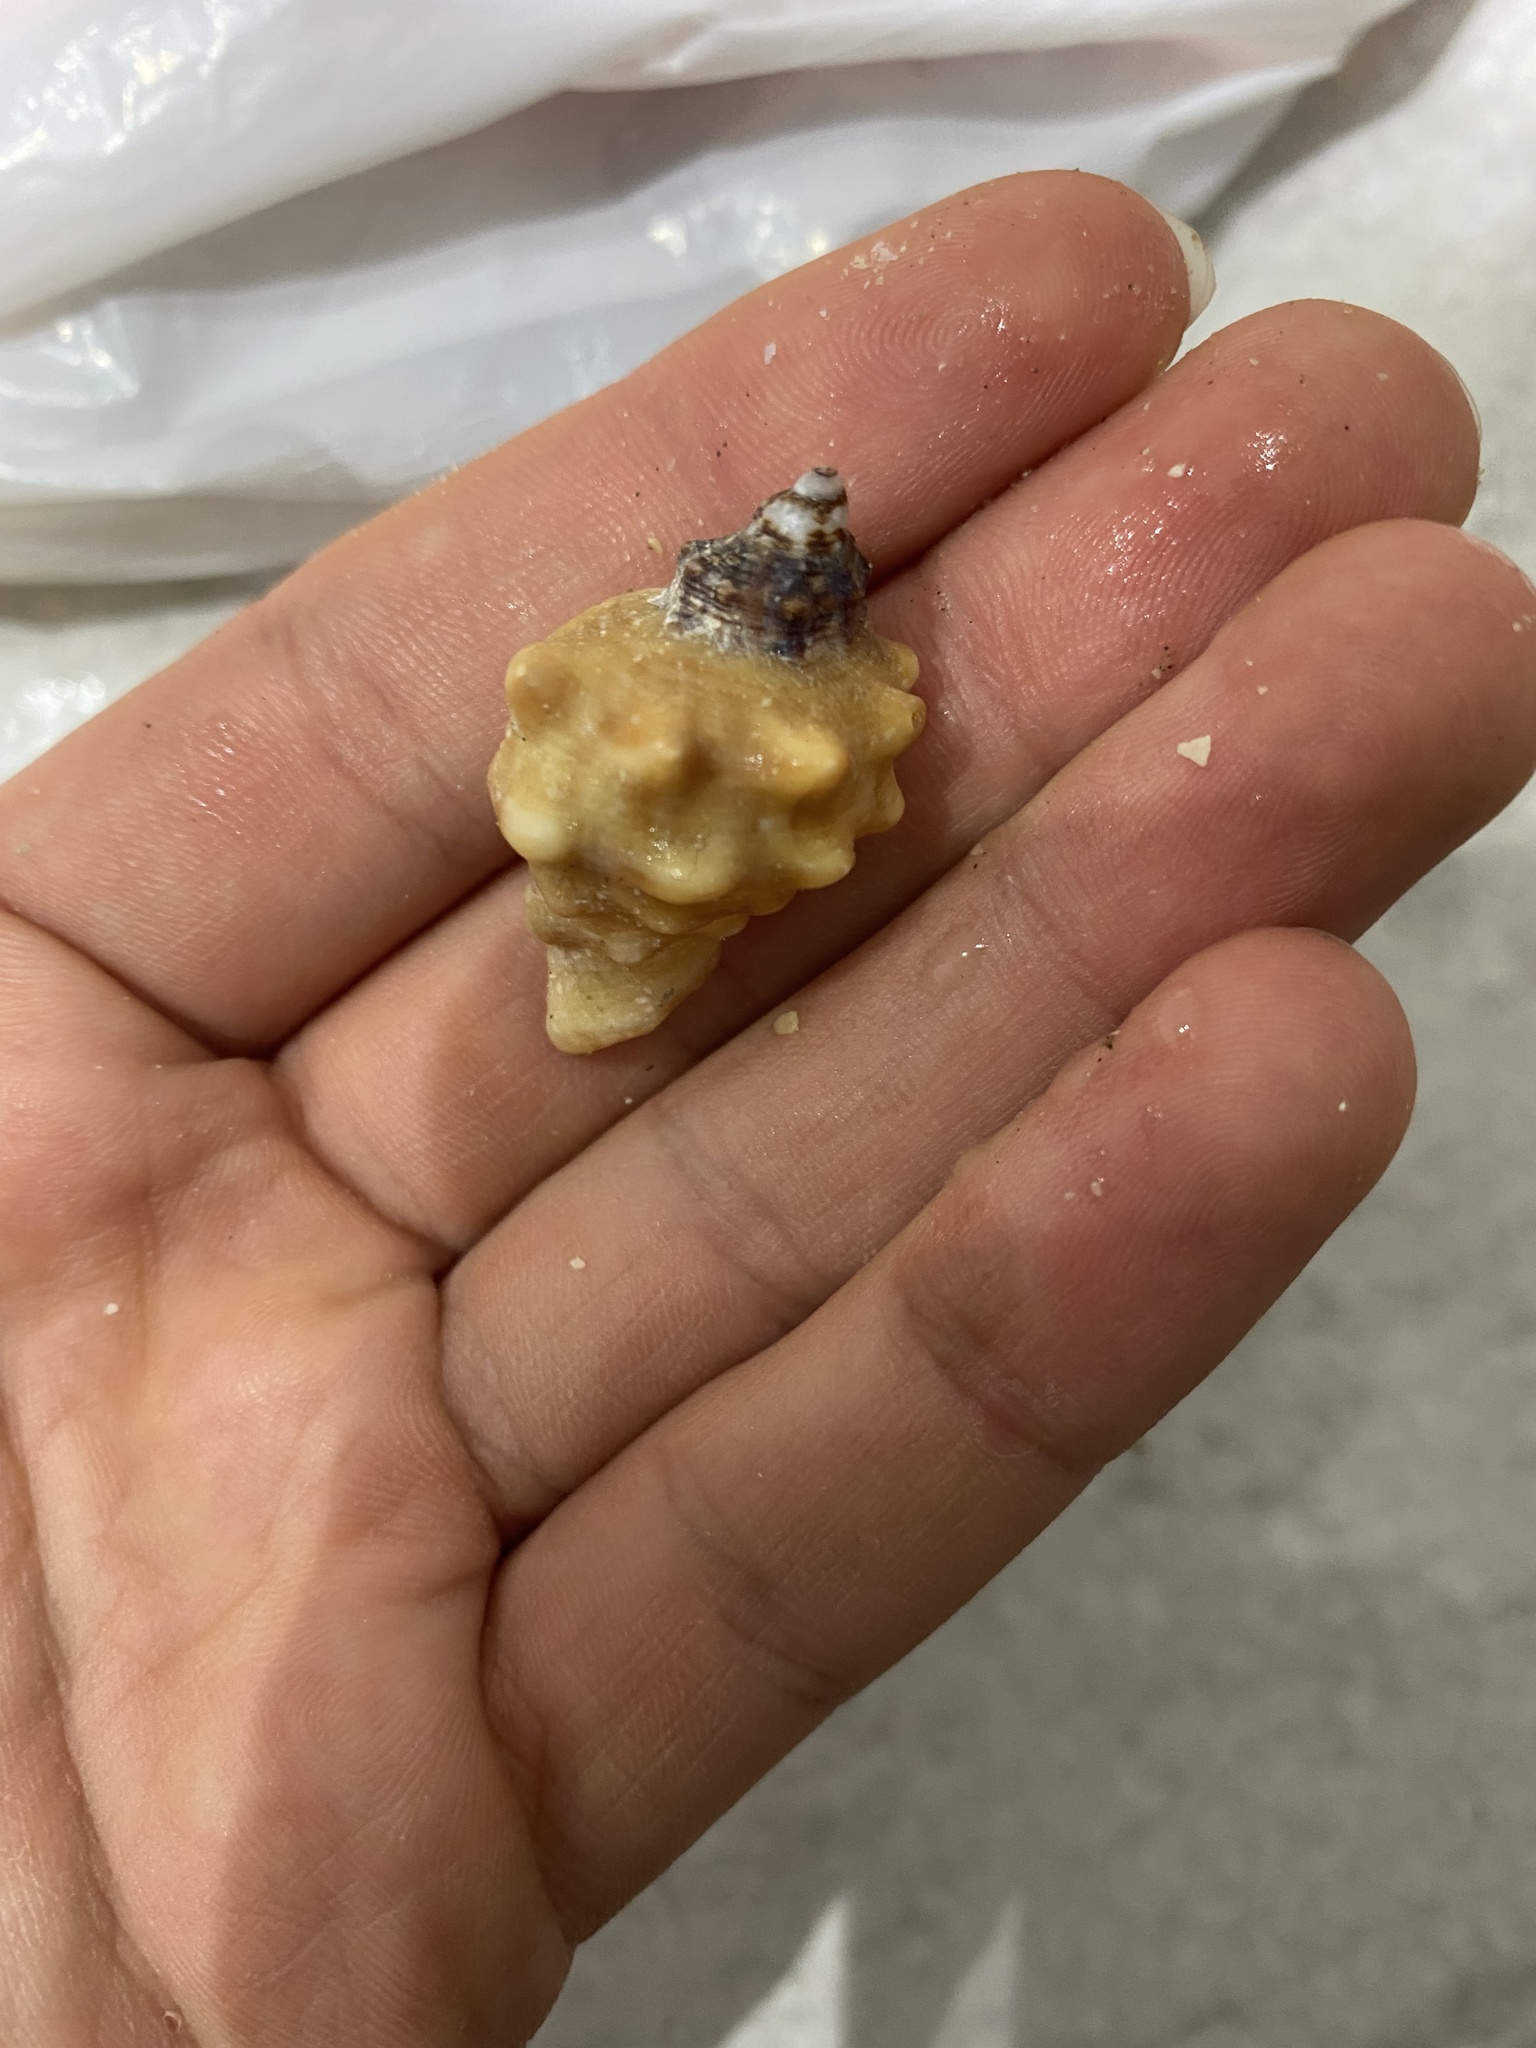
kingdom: Animalia
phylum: Mollusca
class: Gastropoda
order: Neogastropoda
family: Muricidae
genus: Neorapana
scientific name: Neorapana tuberculata
